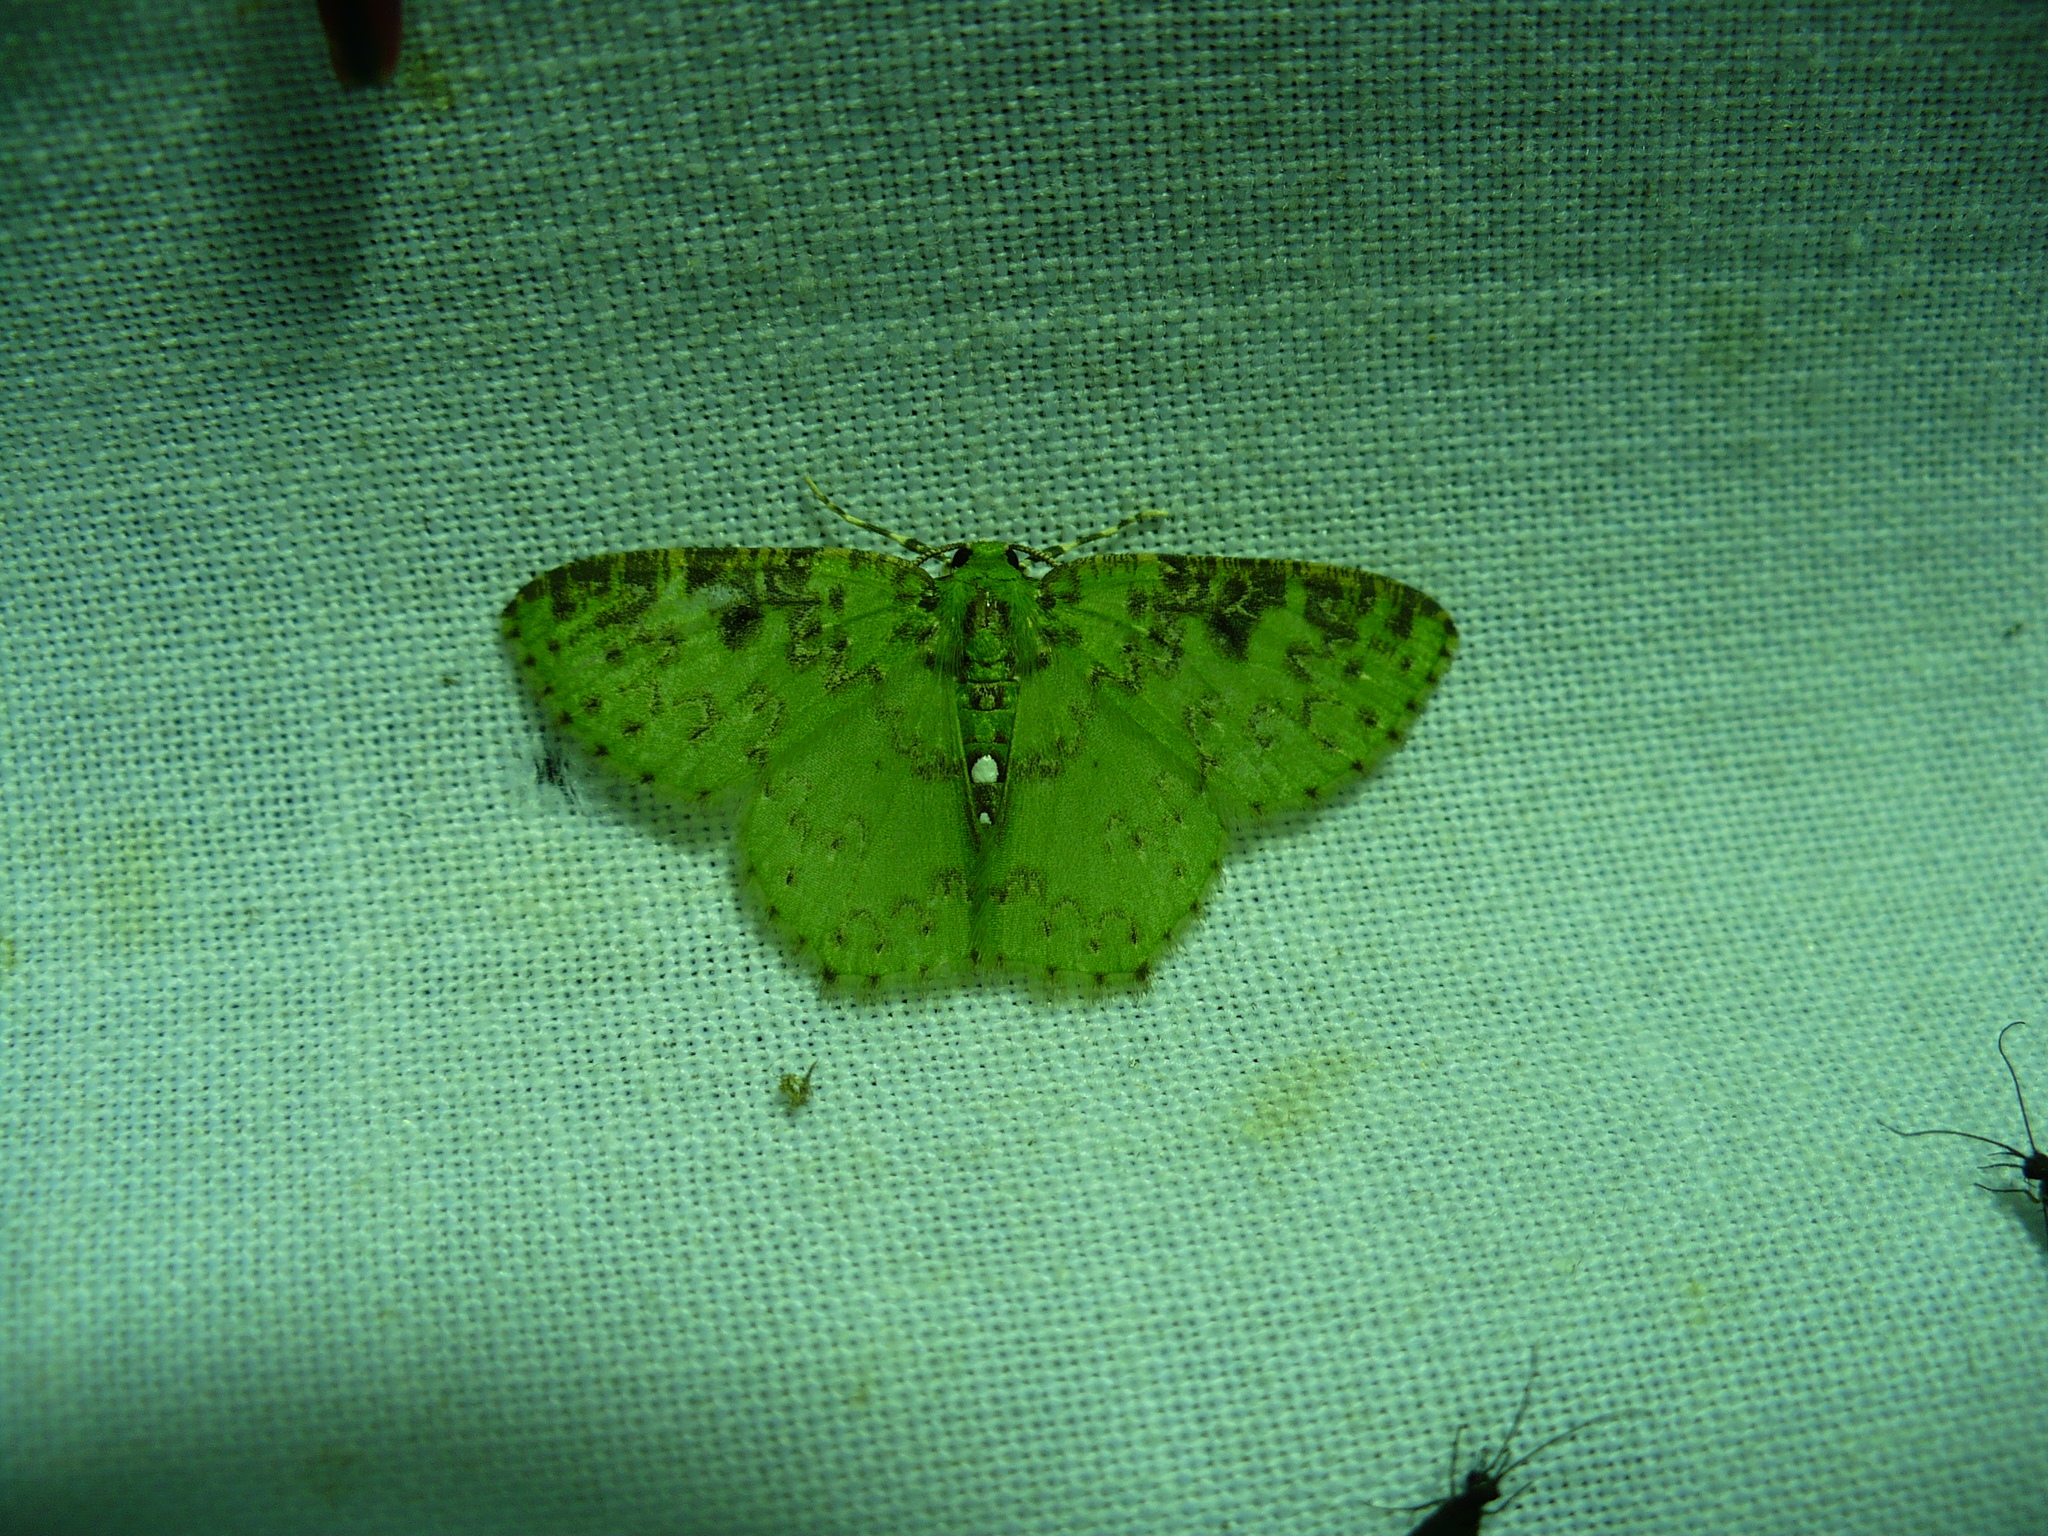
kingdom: Animalia
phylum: Arthropoda
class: Insecta
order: Lepidoptera
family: Geometridae
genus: Nemoria
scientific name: Nemoria adjunctaria
